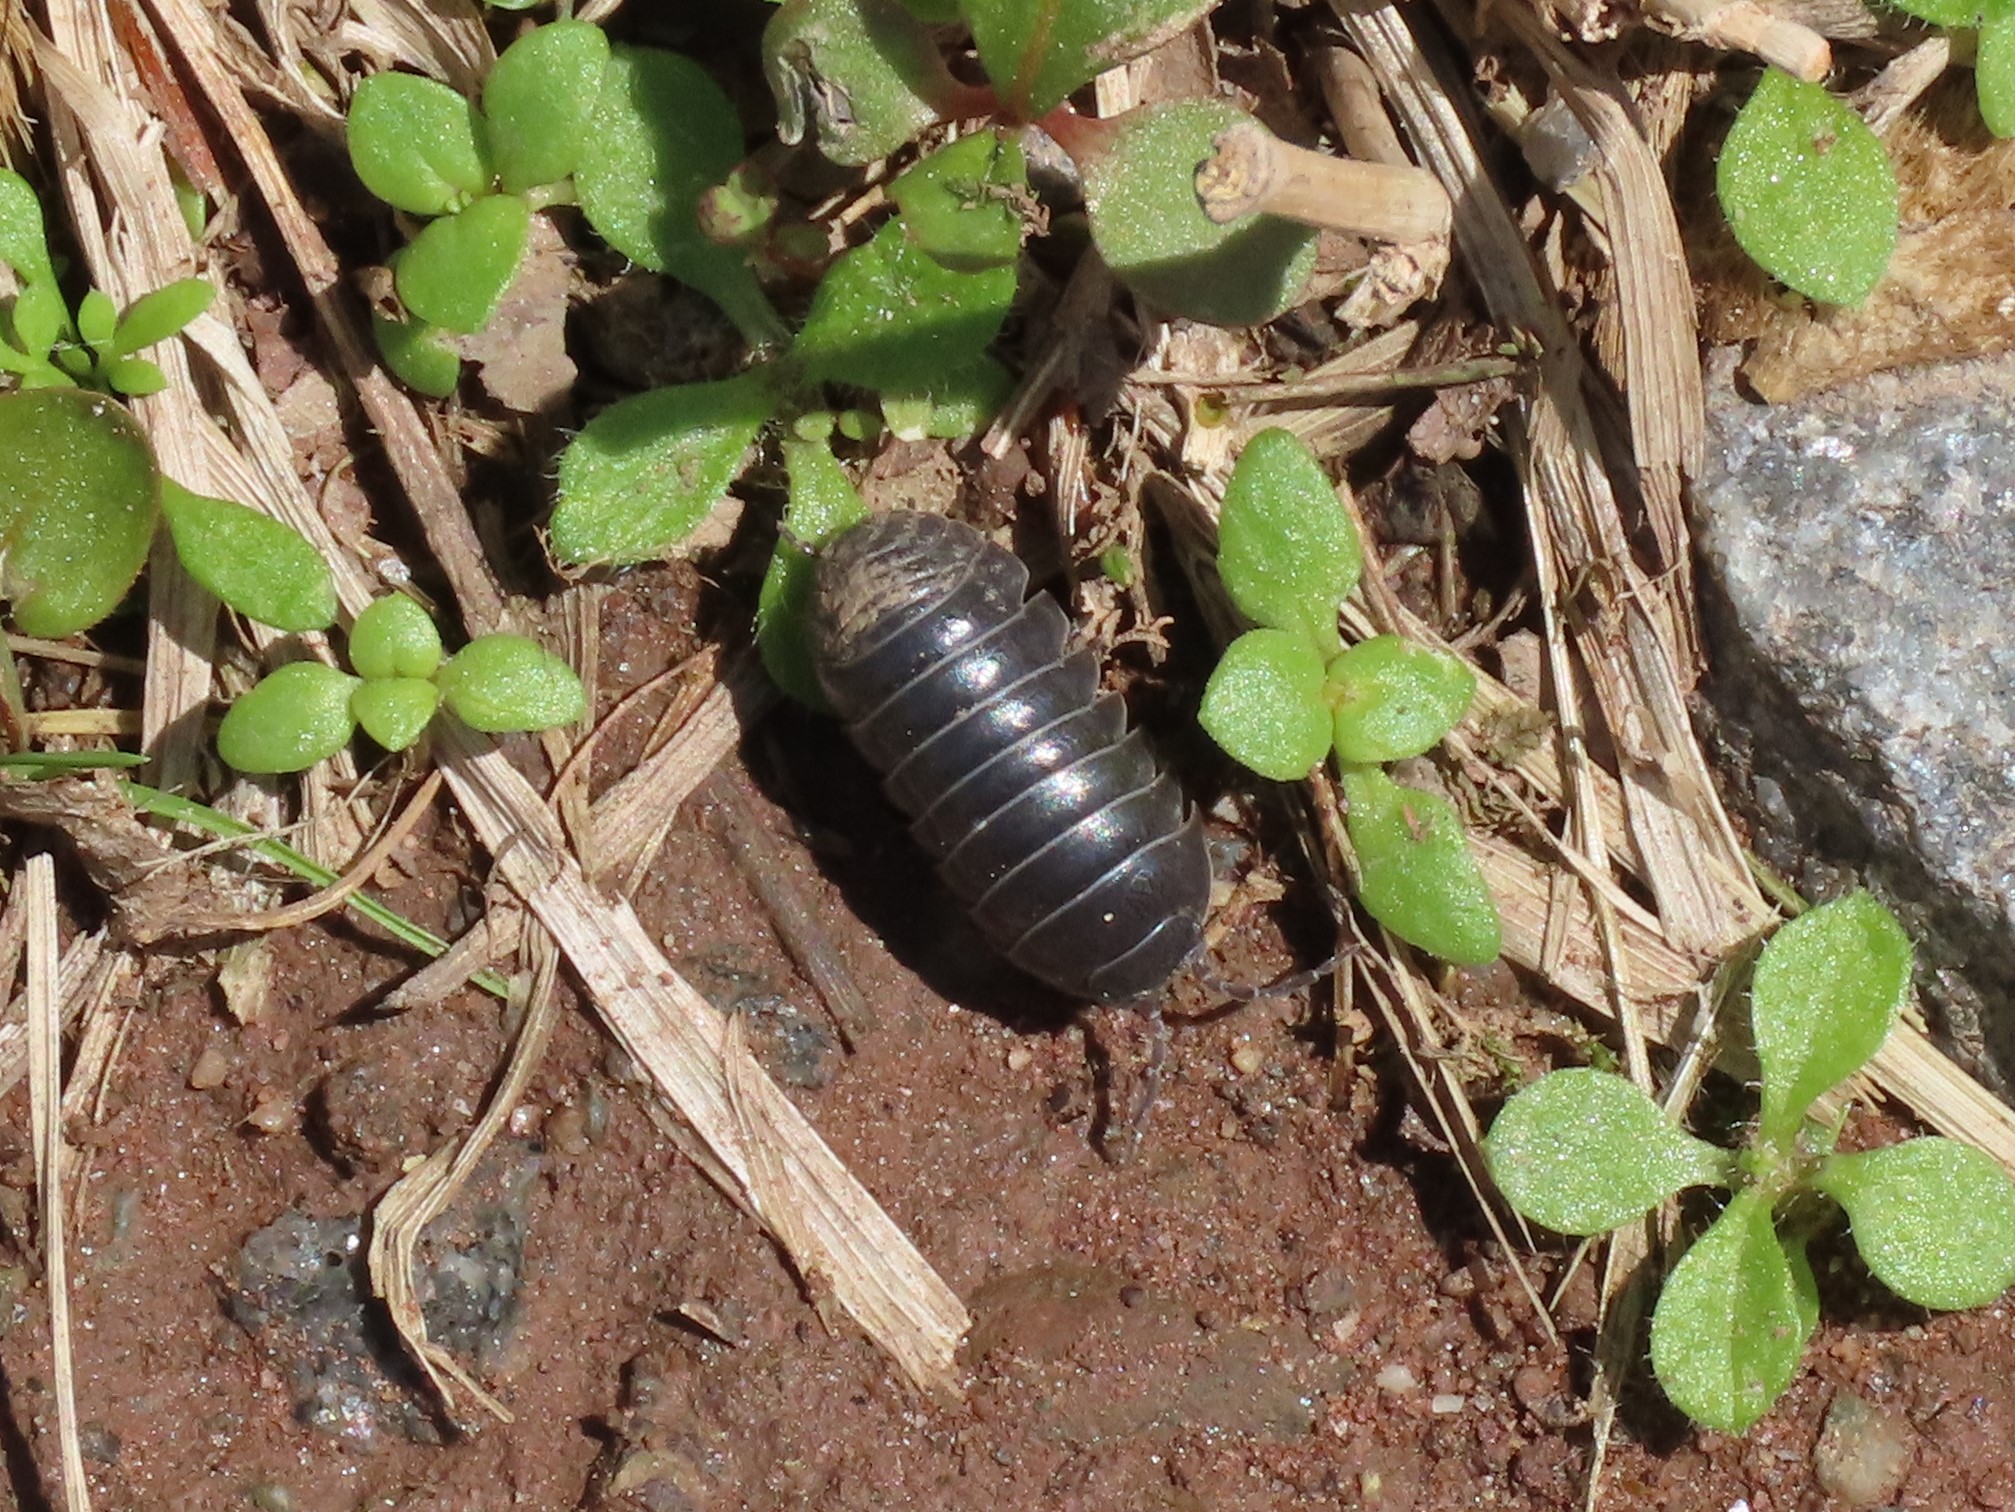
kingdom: Animalia
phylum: Arthropoda
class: Malacostraca
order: Isopoda
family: Armadillidiidae
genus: Armadillidium
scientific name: Armadillidium vulgare
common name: Common pill woodlouse
